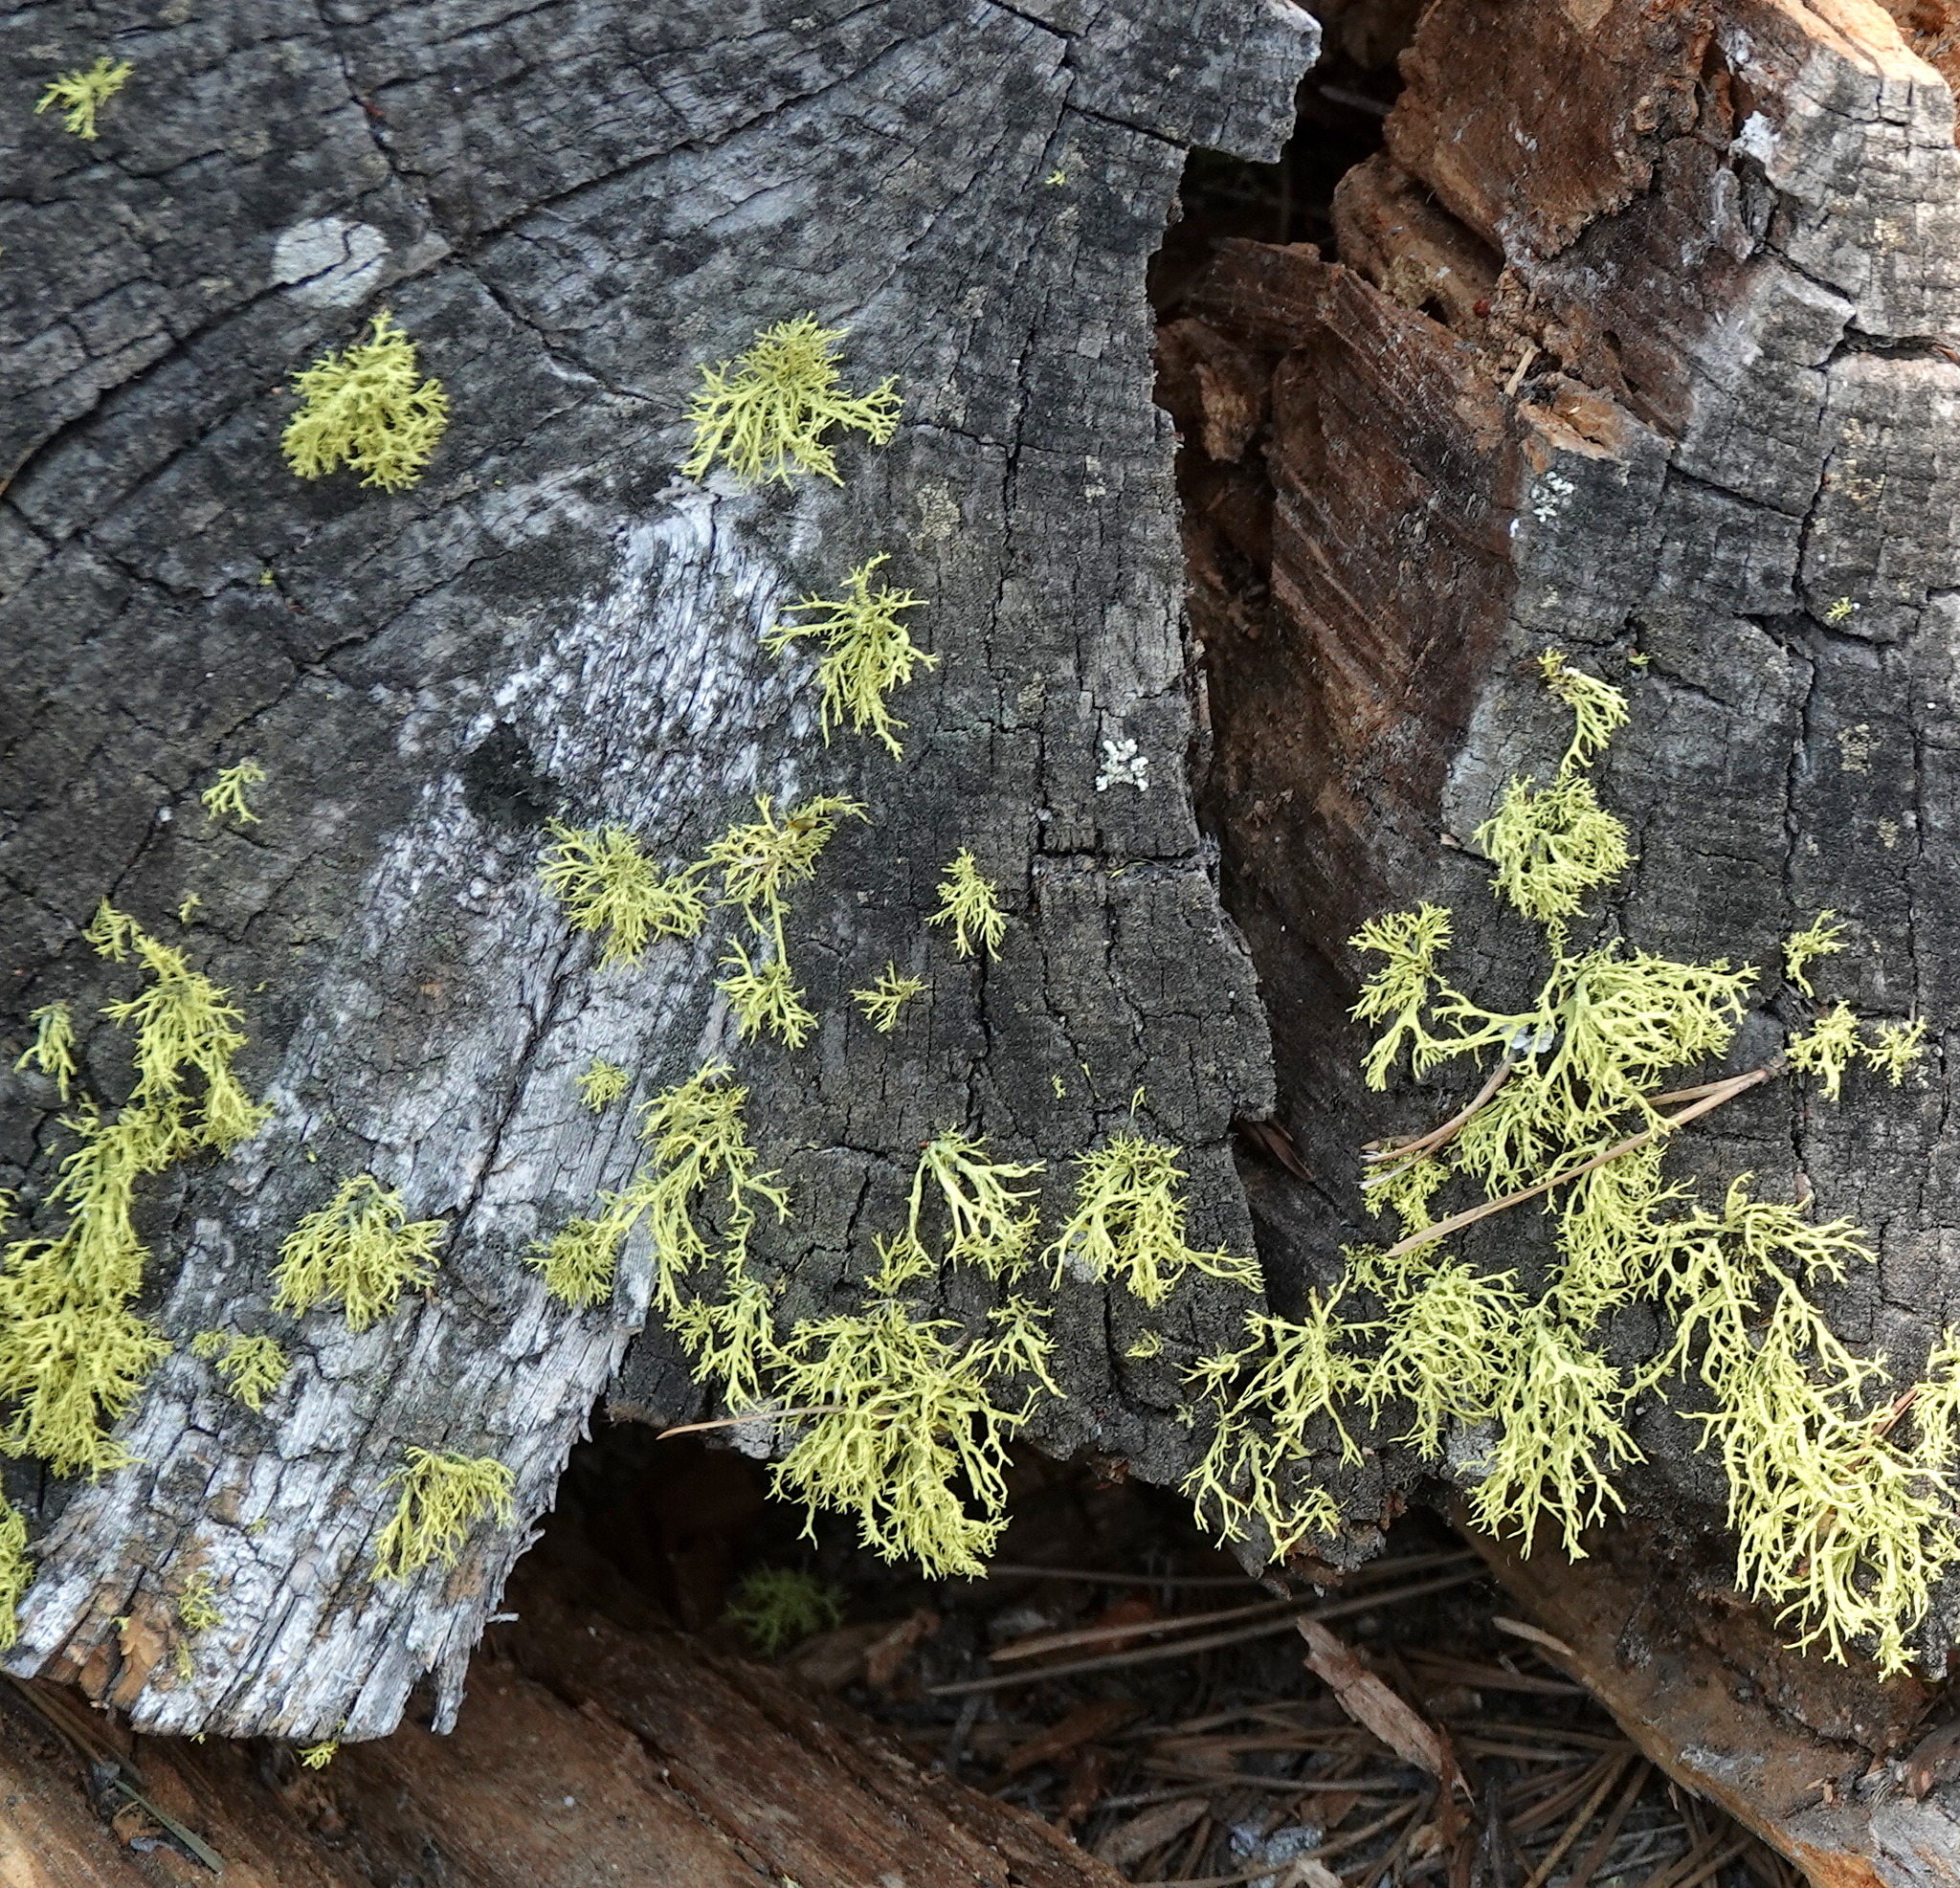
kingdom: Fungi
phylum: Ascomycota
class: Lecanoromycetes
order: Lecanorales
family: Parmeliaceae
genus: Letharia
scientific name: Letharia vulpina
